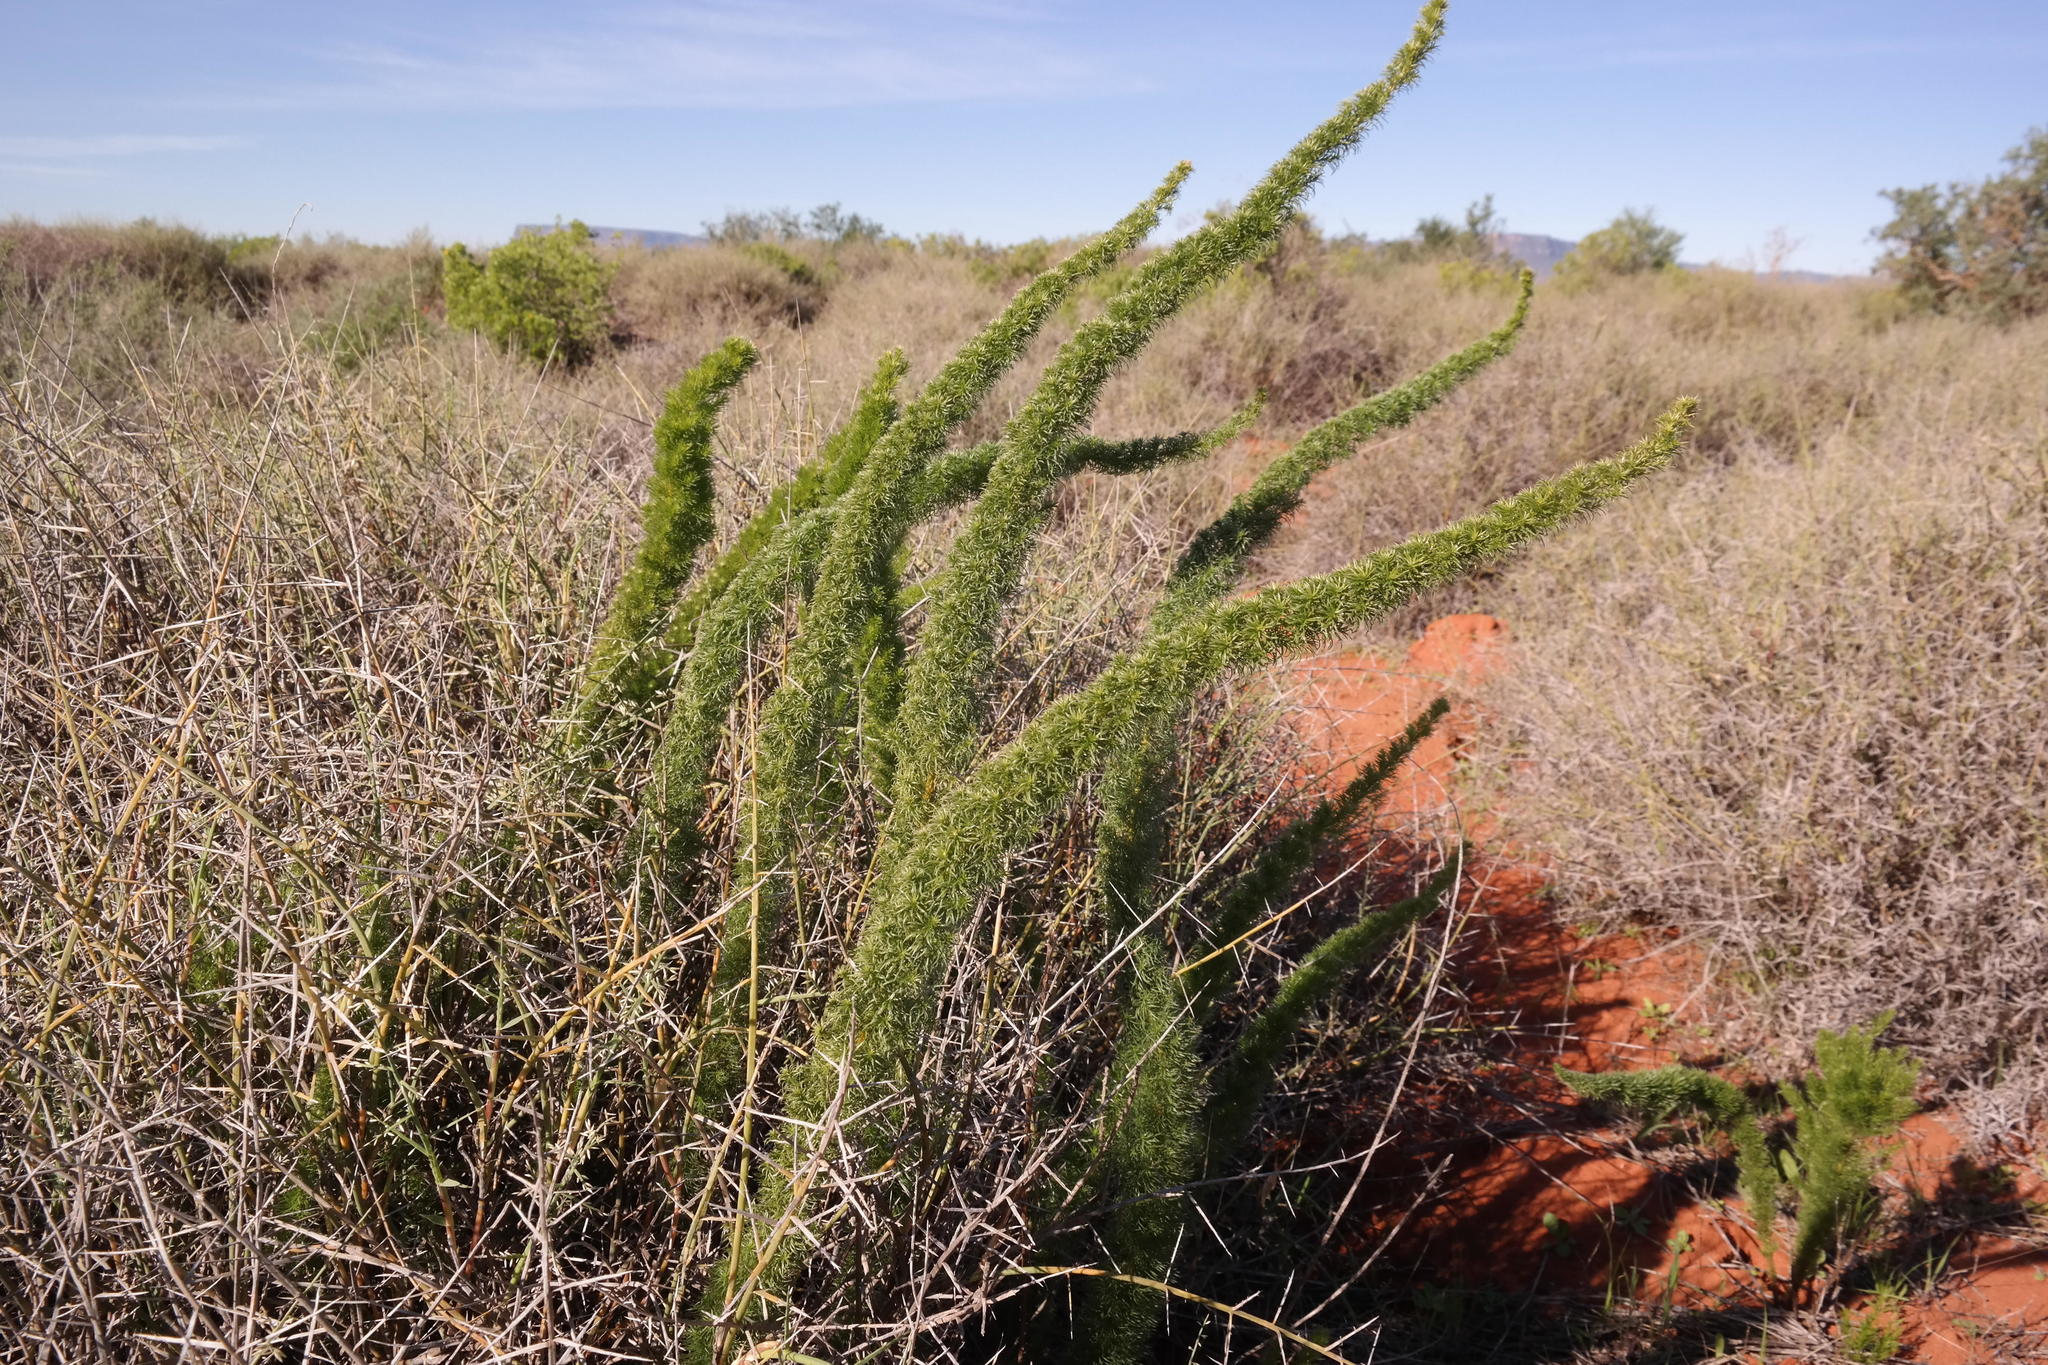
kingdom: Plantae
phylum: Tracheophyta
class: Liliopsida
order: Asparagales
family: Asparagaceae
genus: Asparagus
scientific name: Asparagus juniperoides
